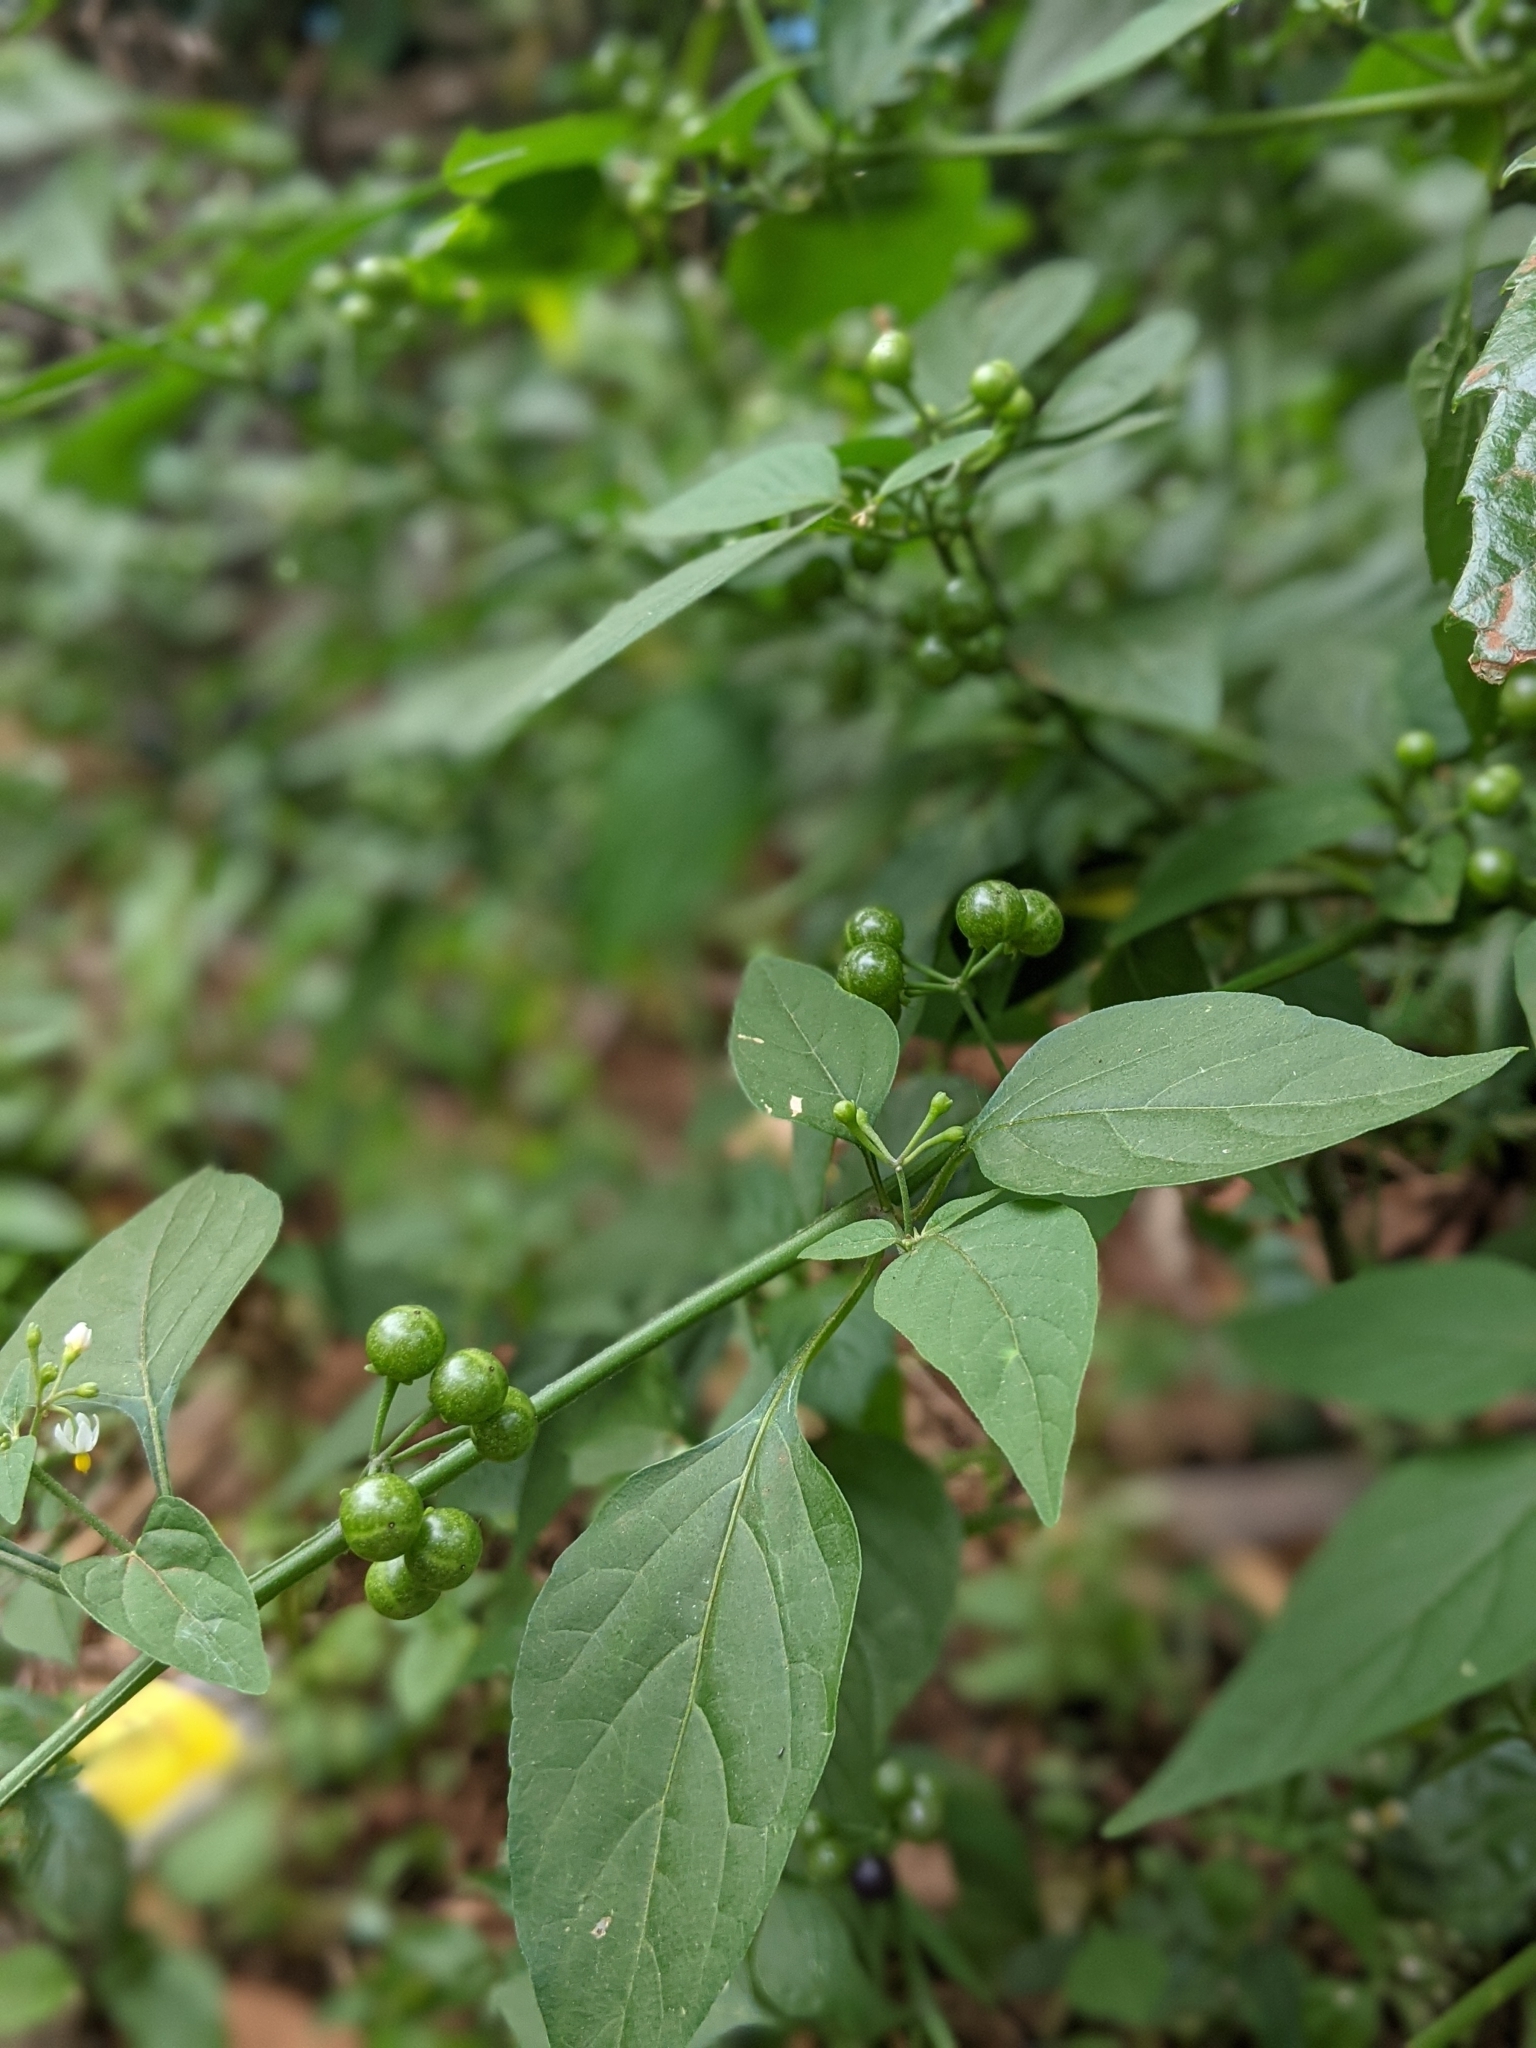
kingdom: Plantae
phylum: Tracheophyta
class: Magnoliopsida
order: Solanales
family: Solanaceae
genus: Solanum
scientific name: Solanum americanum
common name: American black nightshade
